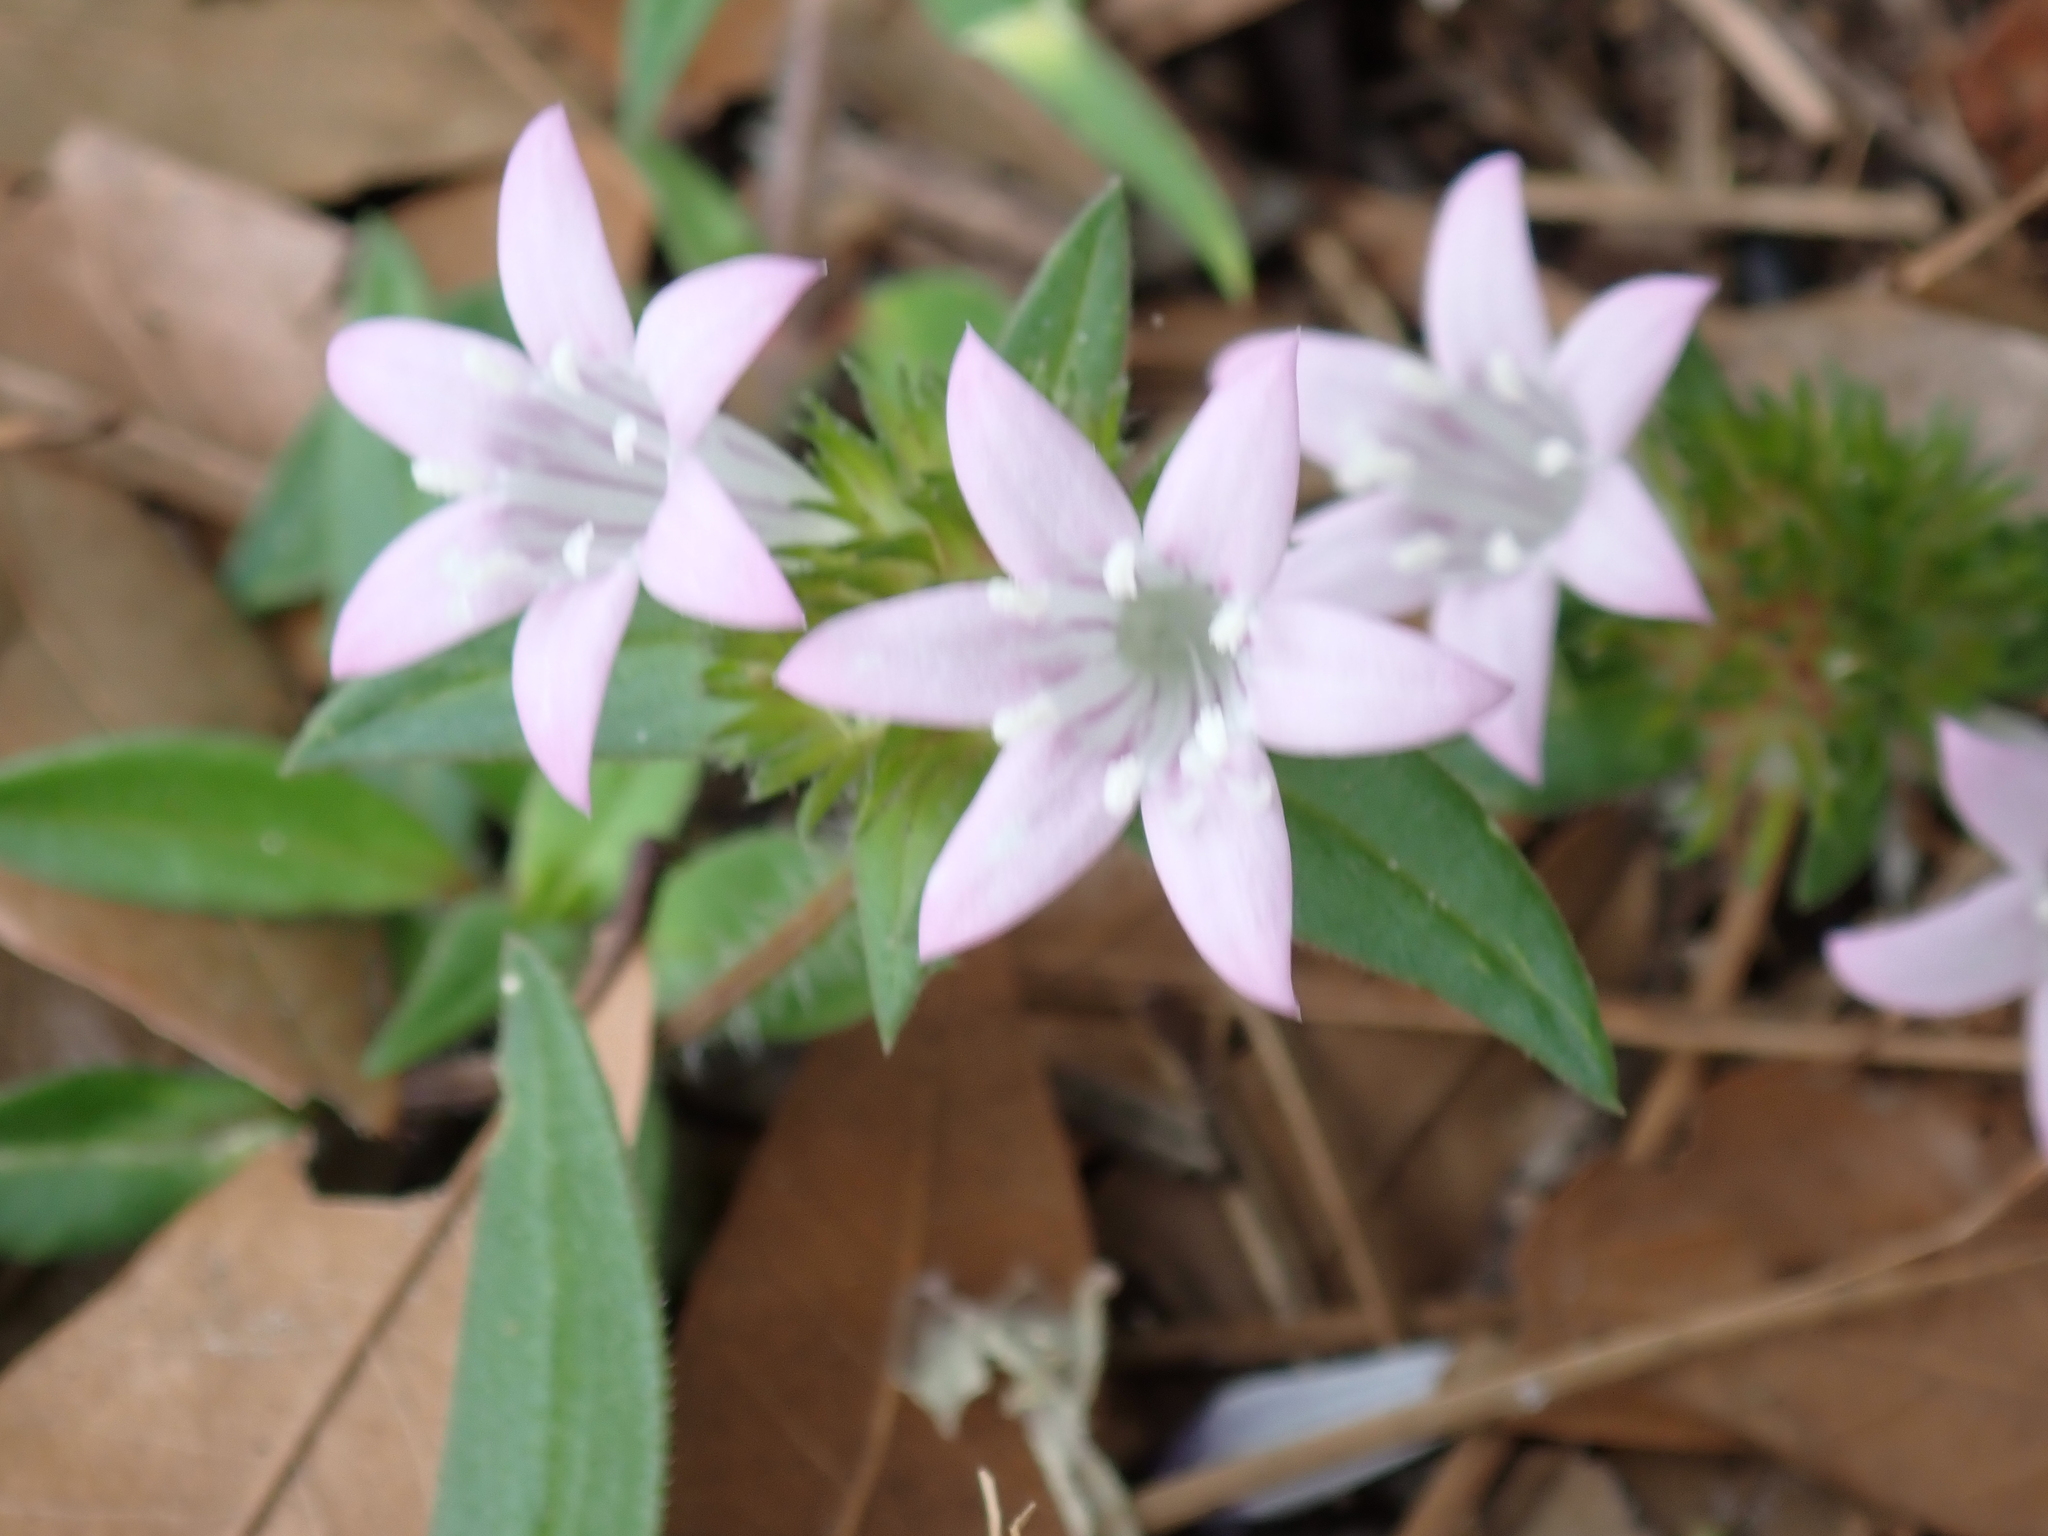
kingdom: Plantae
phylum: Tracheophyta
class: Magnoliopsida
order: Gentianales
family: Rubiaceae
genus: Richardia
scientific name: Richardia grandiflora
